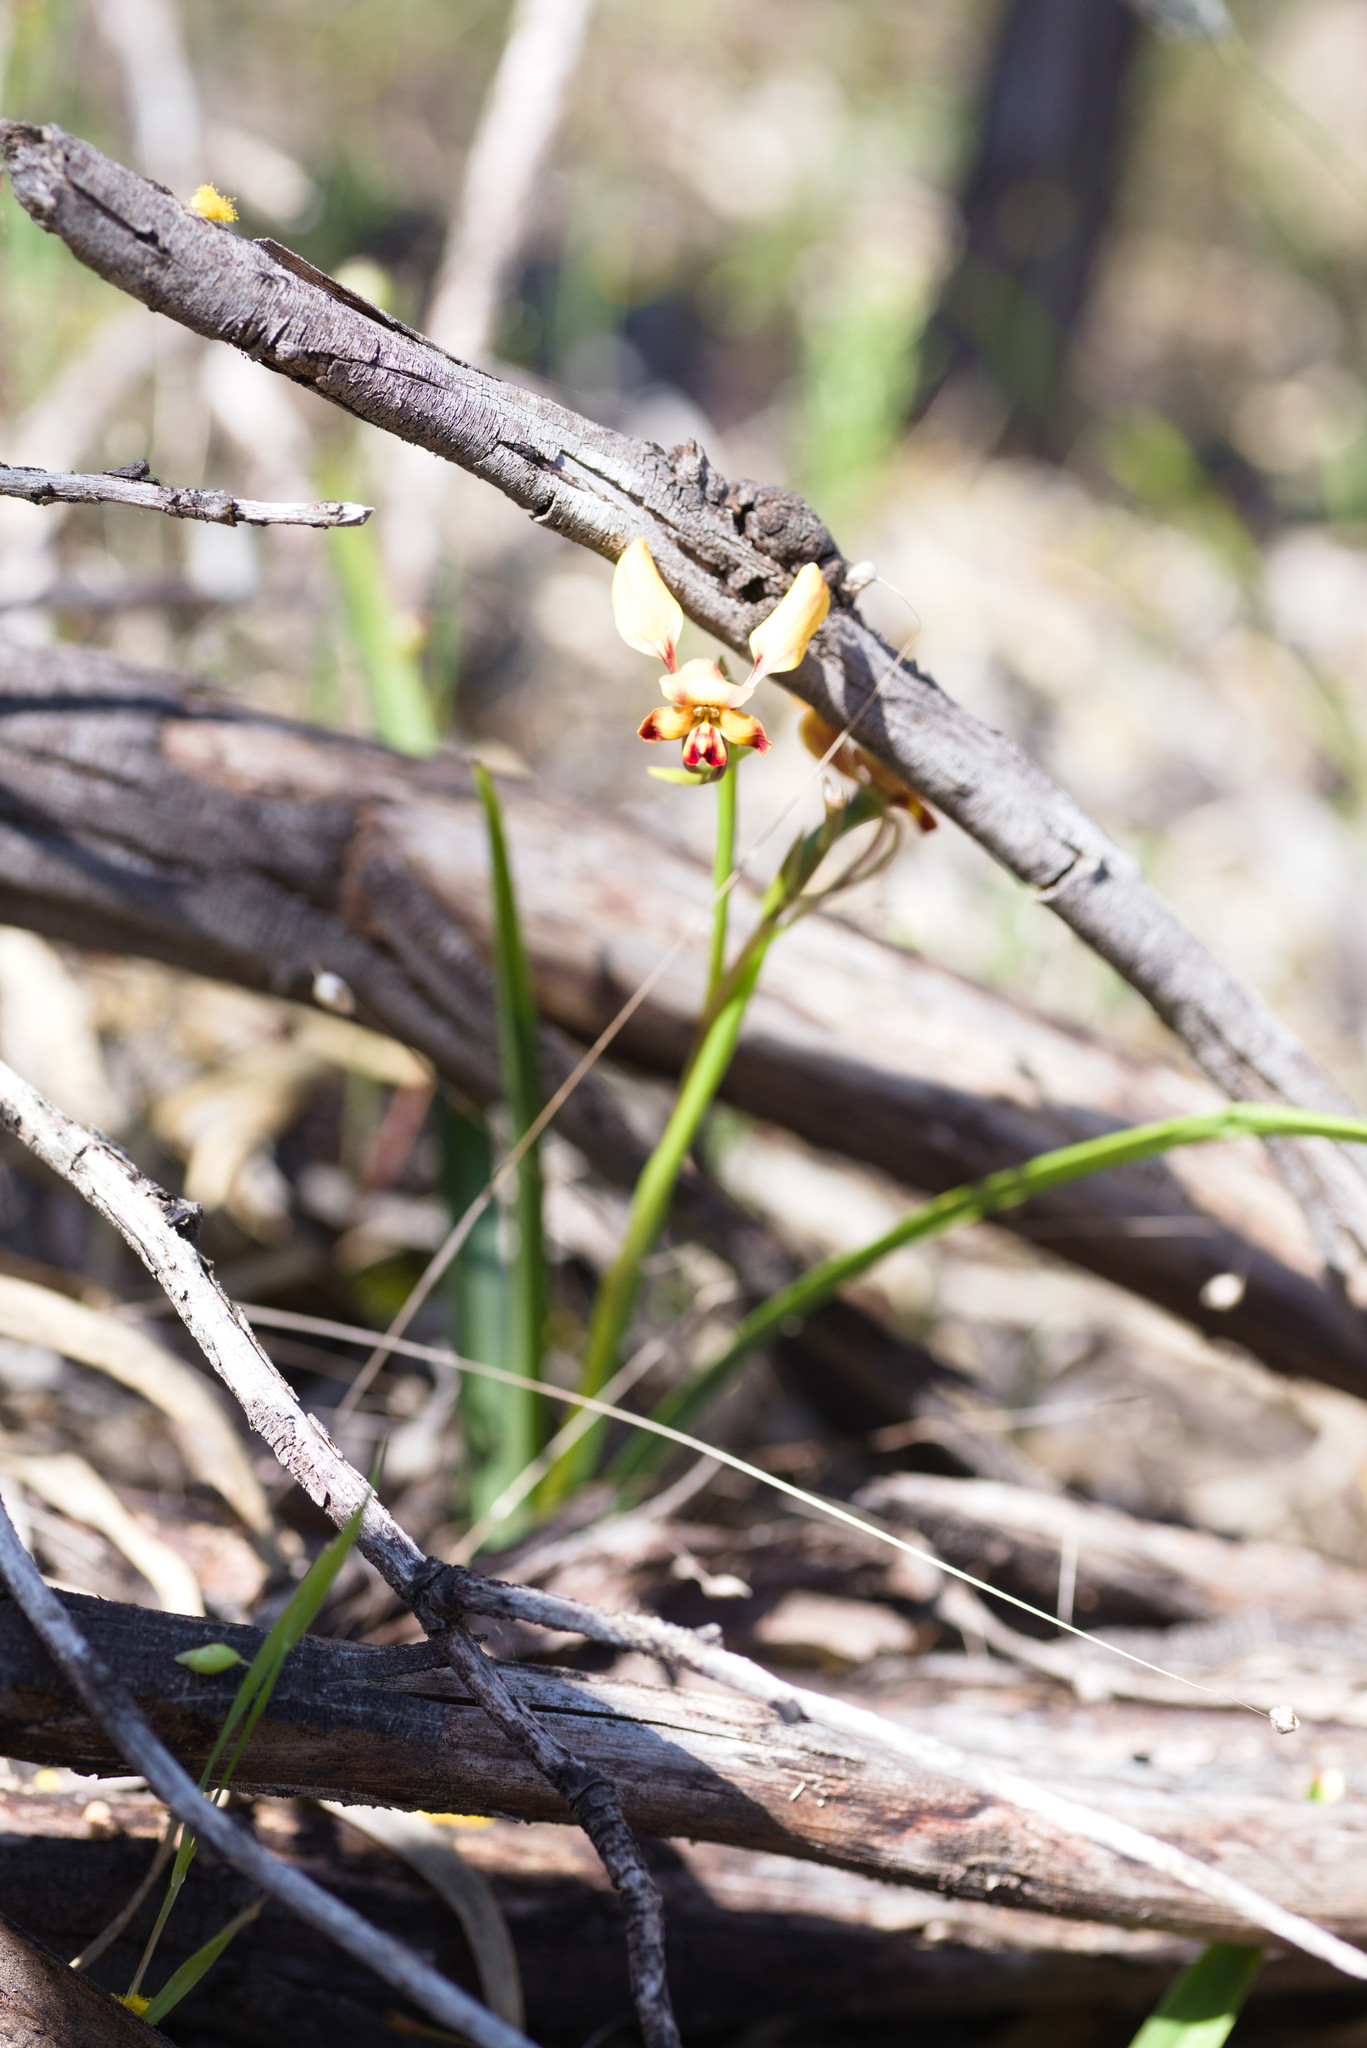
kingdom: Plantae
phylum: Tracheophyta
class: Liliopsida
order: Asparagales
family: Orchidaceae
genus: Diuris
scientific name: Diuris porrifolia
